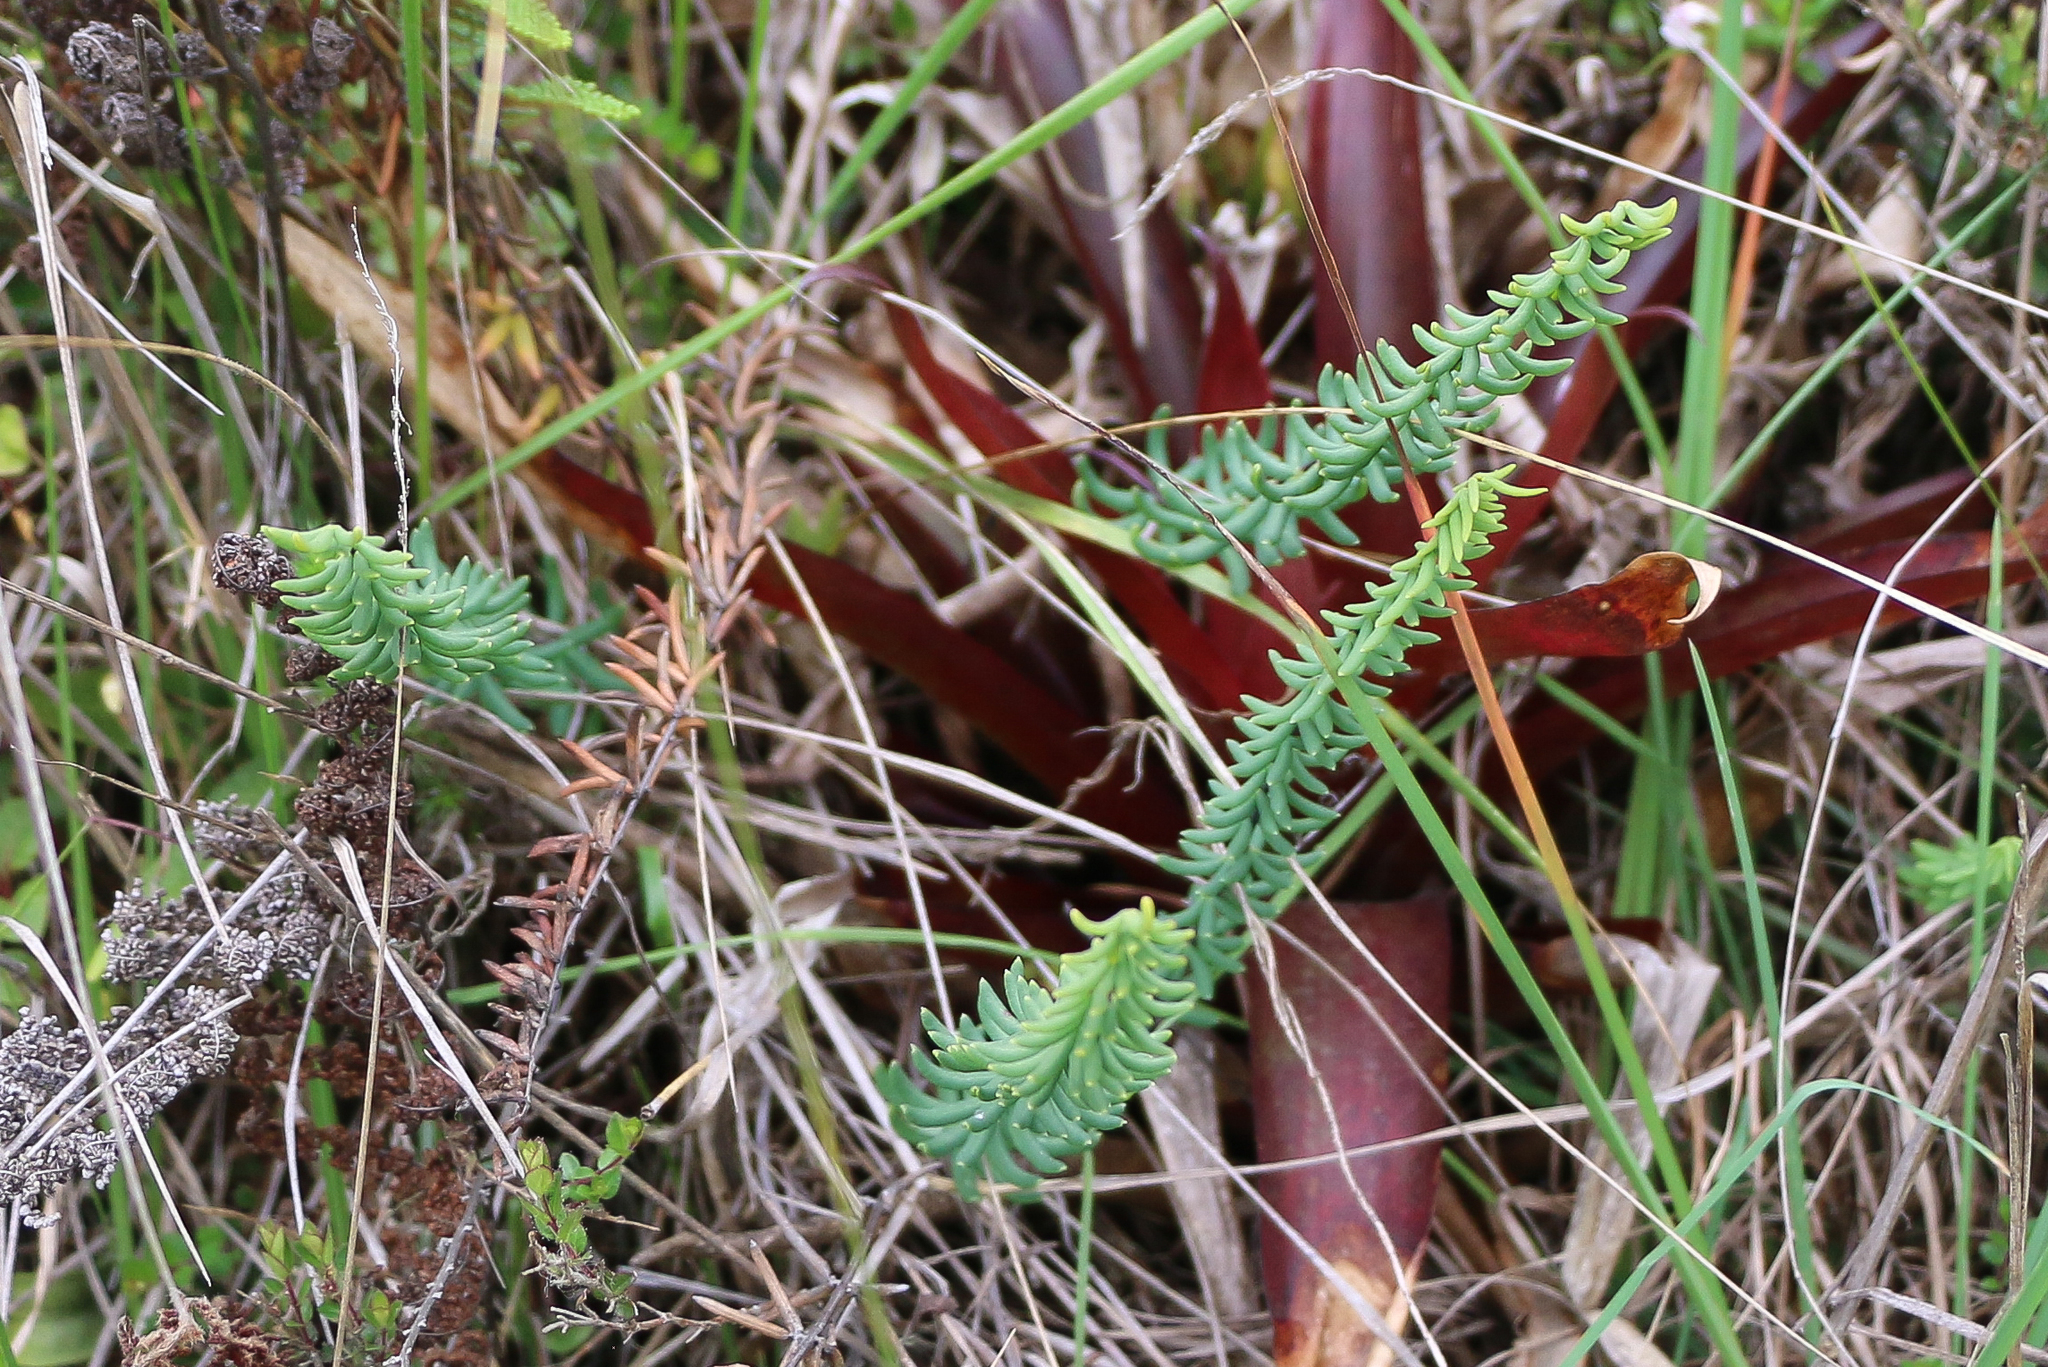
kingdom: Plantae
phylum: Tracheophyta
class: Polypodiopsida
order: Polypodiales
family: Pteridaceae
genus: Pellaea
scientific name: Pellaea ternifolia
